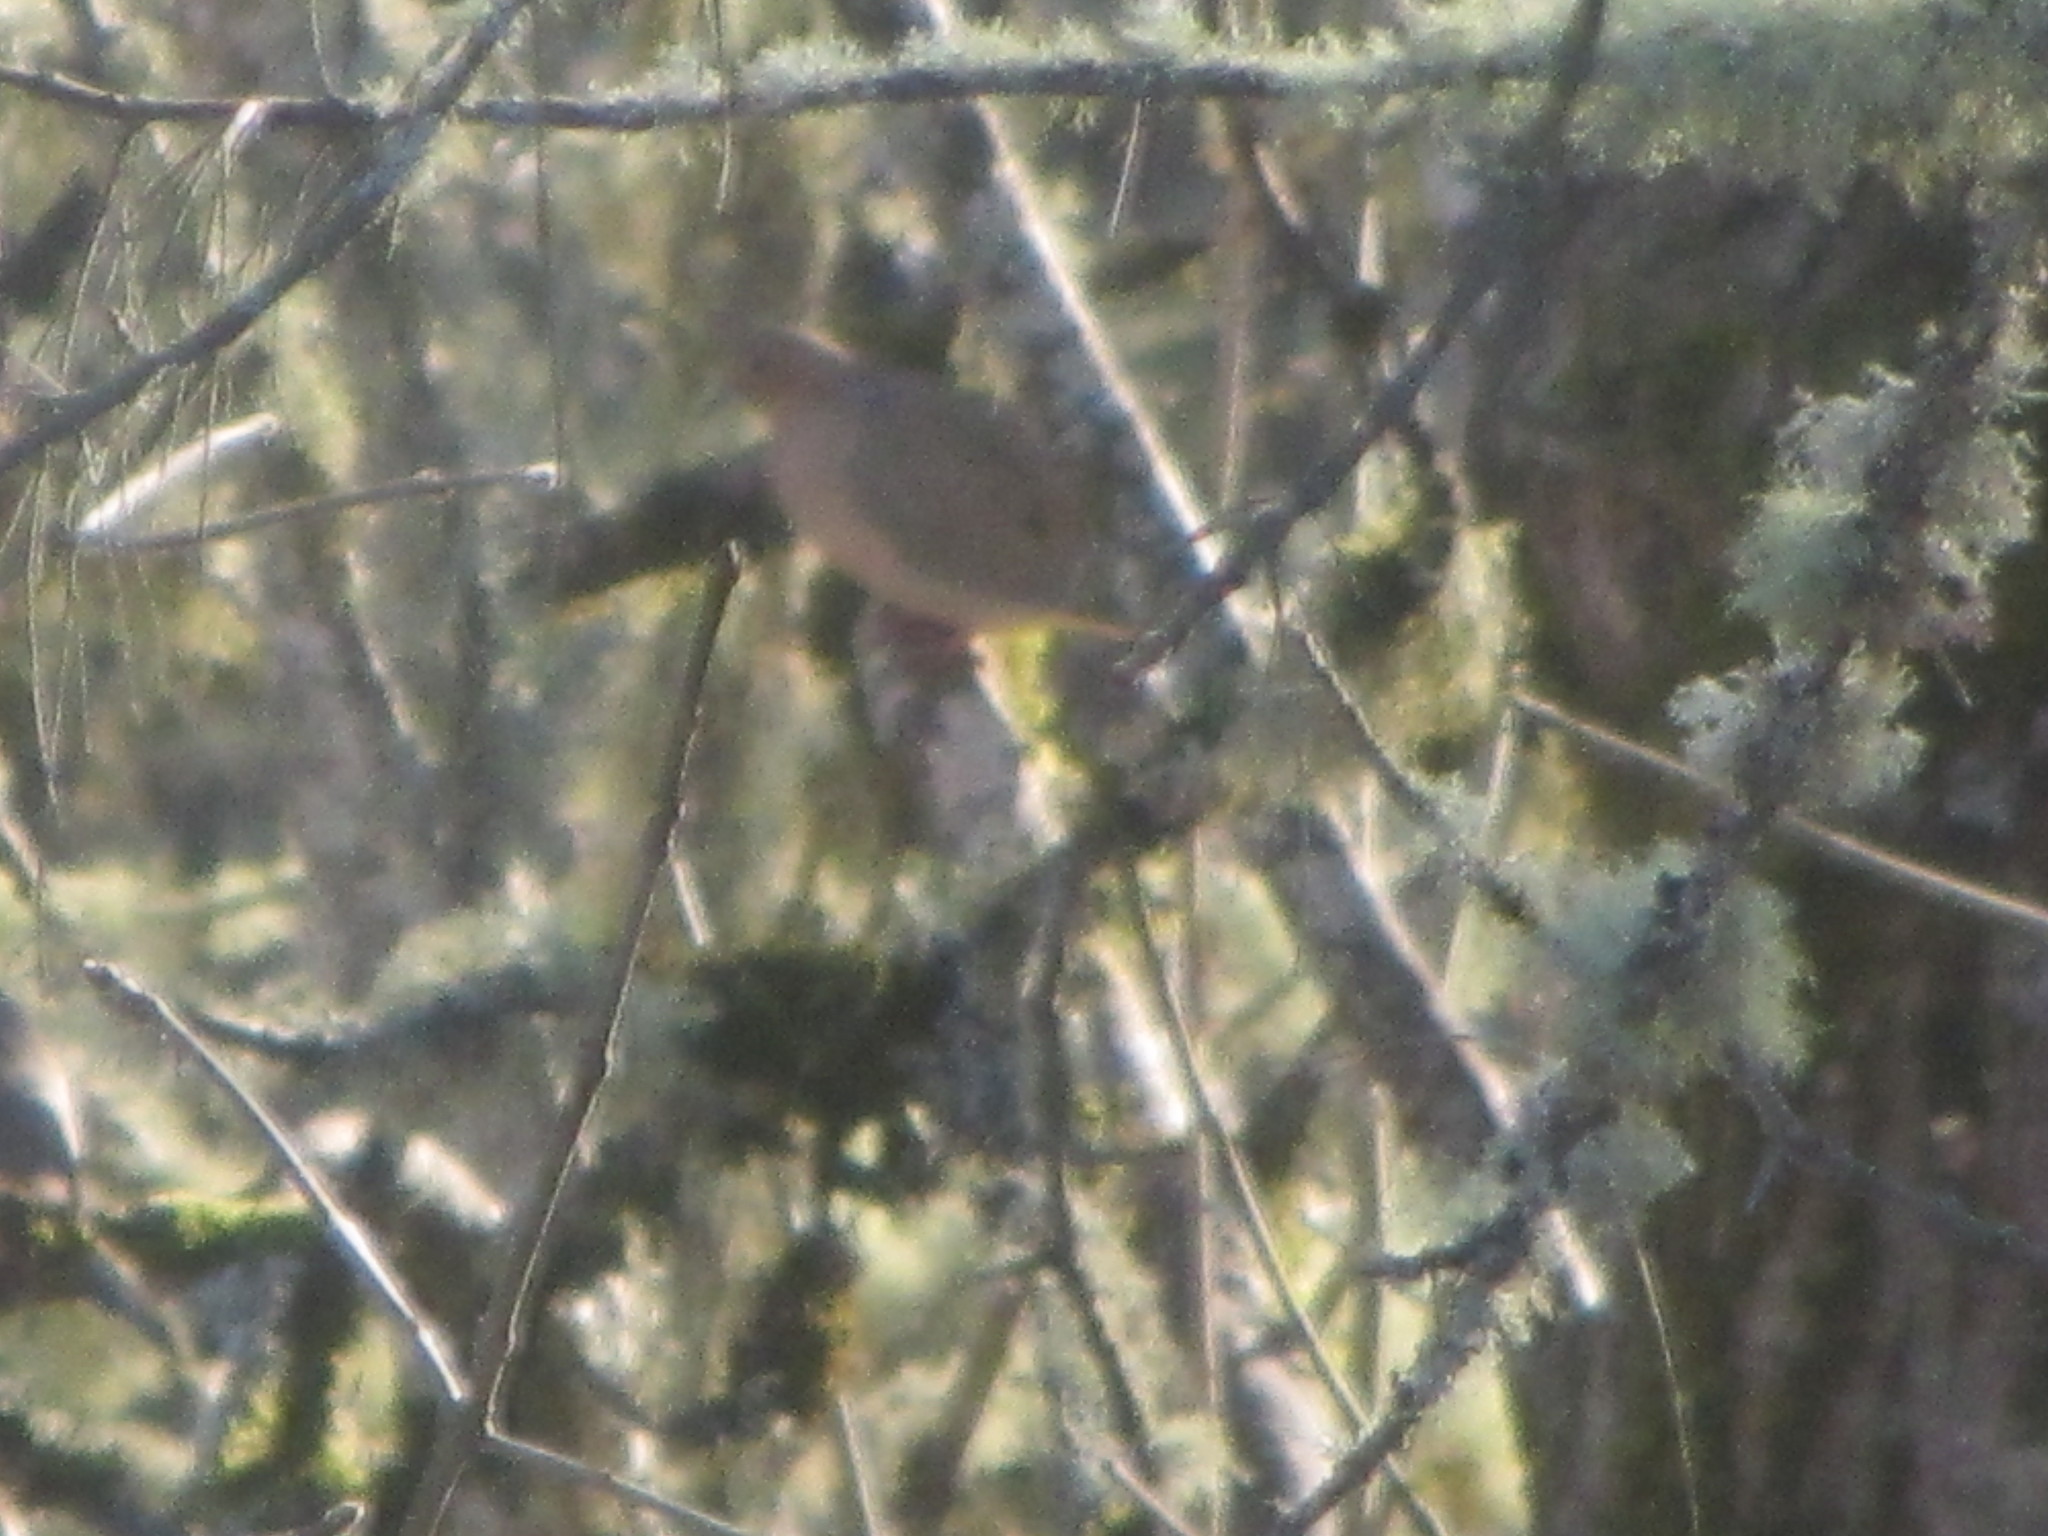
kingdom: Animalia
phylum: Chordata
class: Aves
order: Columbiformes
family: Columbidae
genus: Zenaida
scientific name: Zenaida macroura
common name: Mourning dove
